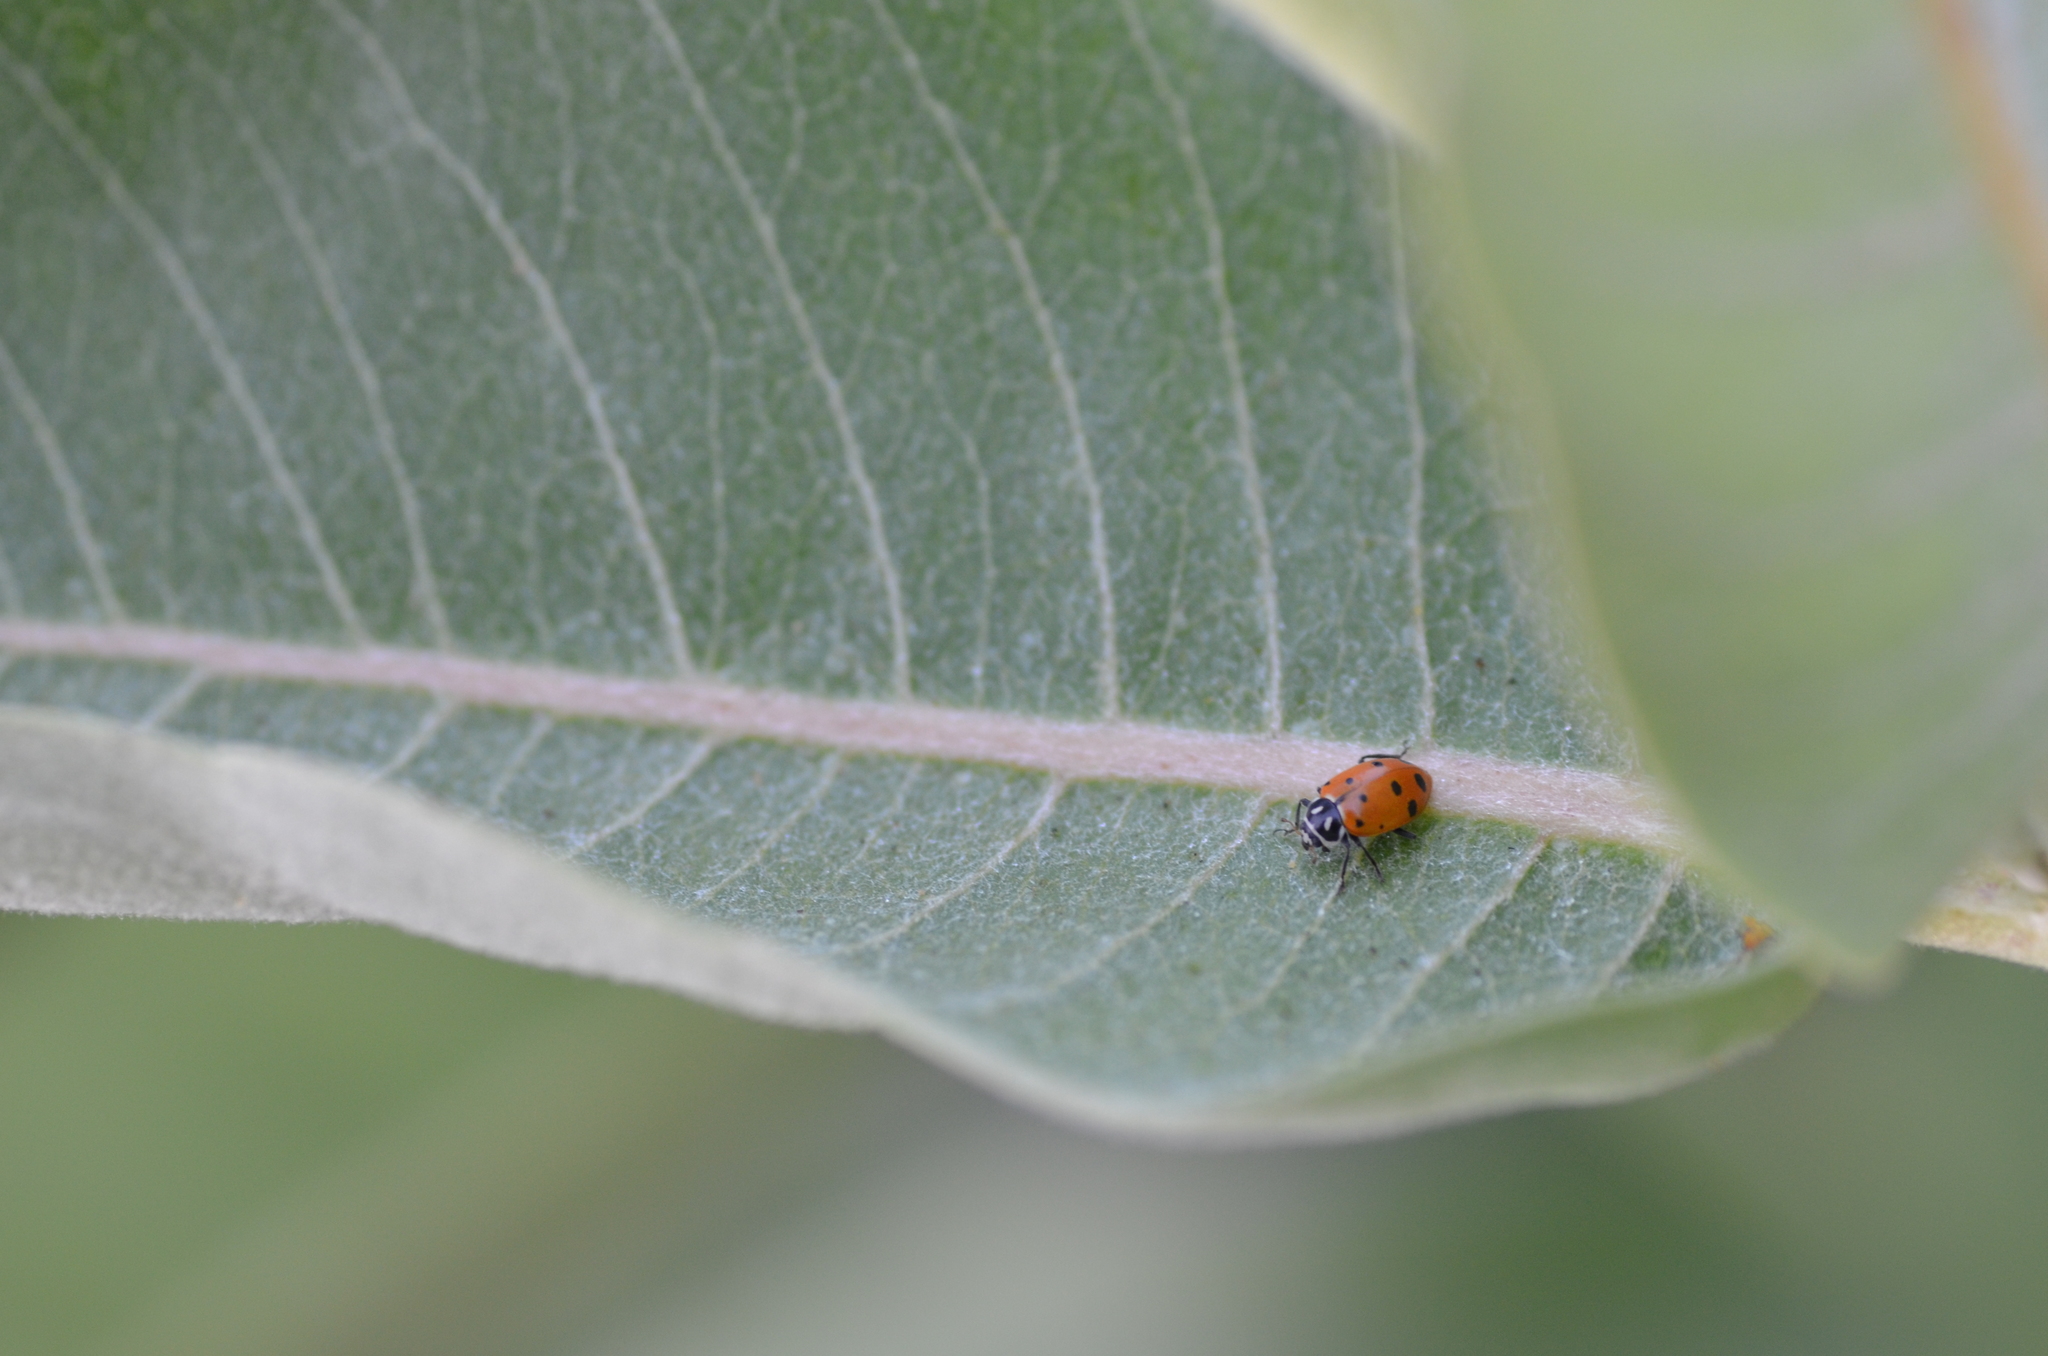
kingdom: Animalia
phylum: Arthropoda
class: Insecta
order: Coleoptera
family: Coccinellidae
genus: Hippodamia
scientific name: Hippodamia convergens
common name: Convergent lady beetle
